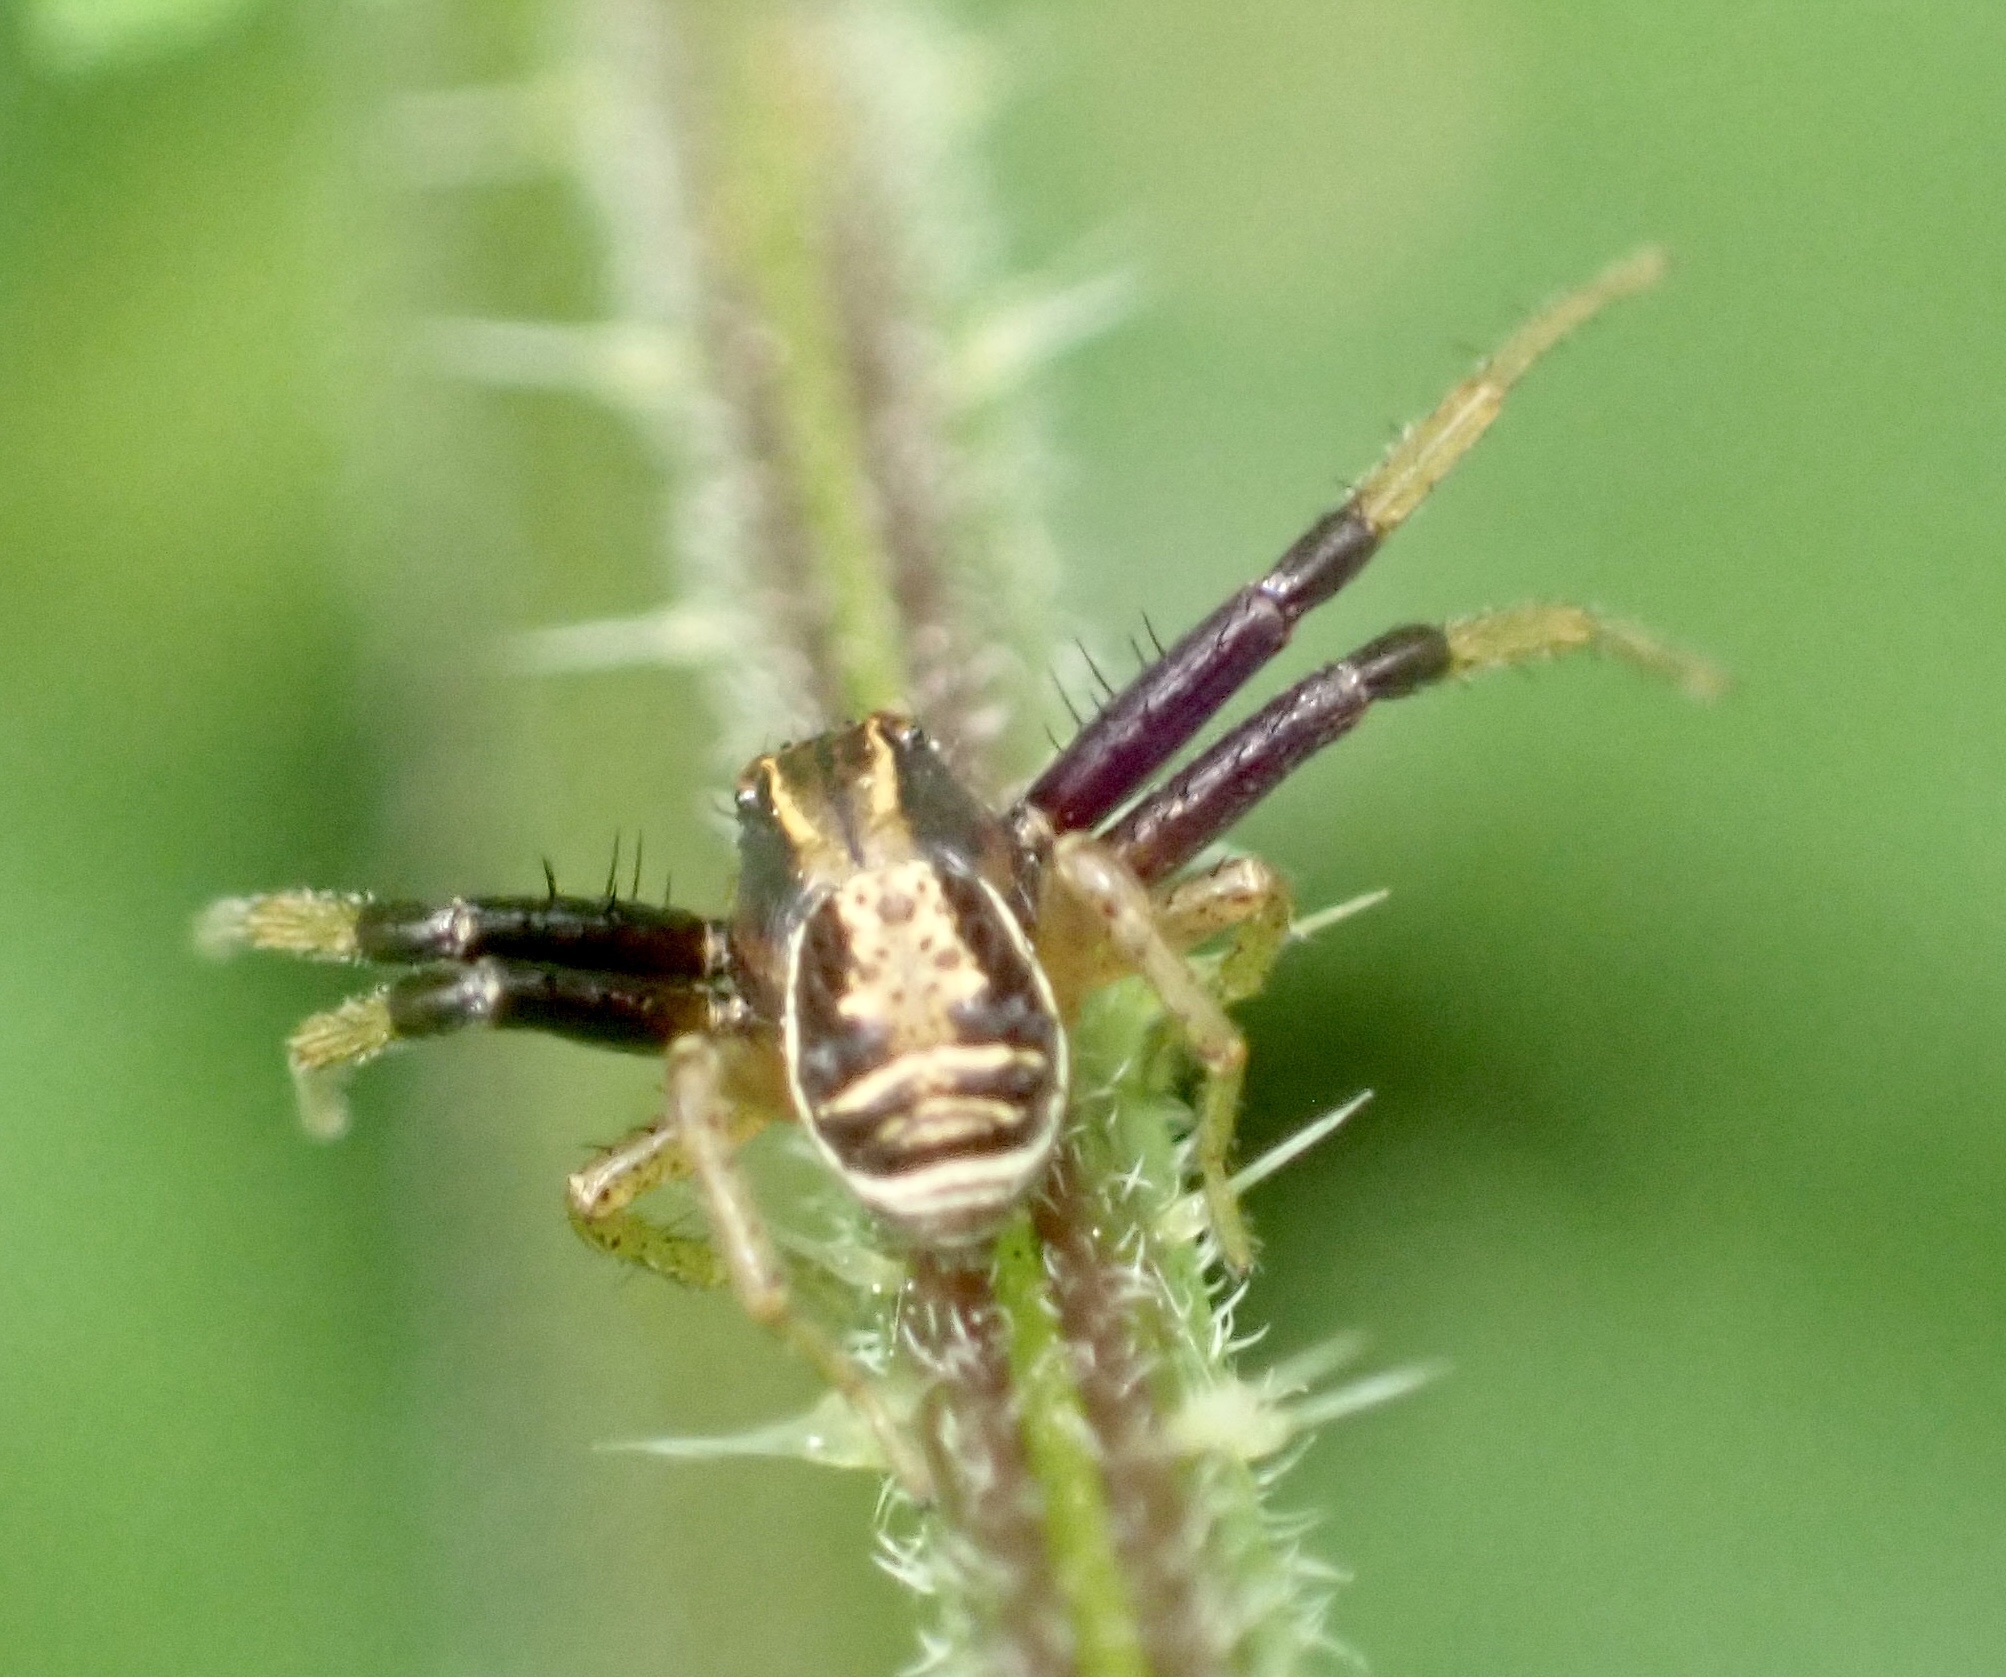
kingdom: Animalia
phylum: Arthropoda
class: Arachnida
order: Araneae
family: Thomisidae
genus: Xysticus
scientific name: Xysticus ulmi
